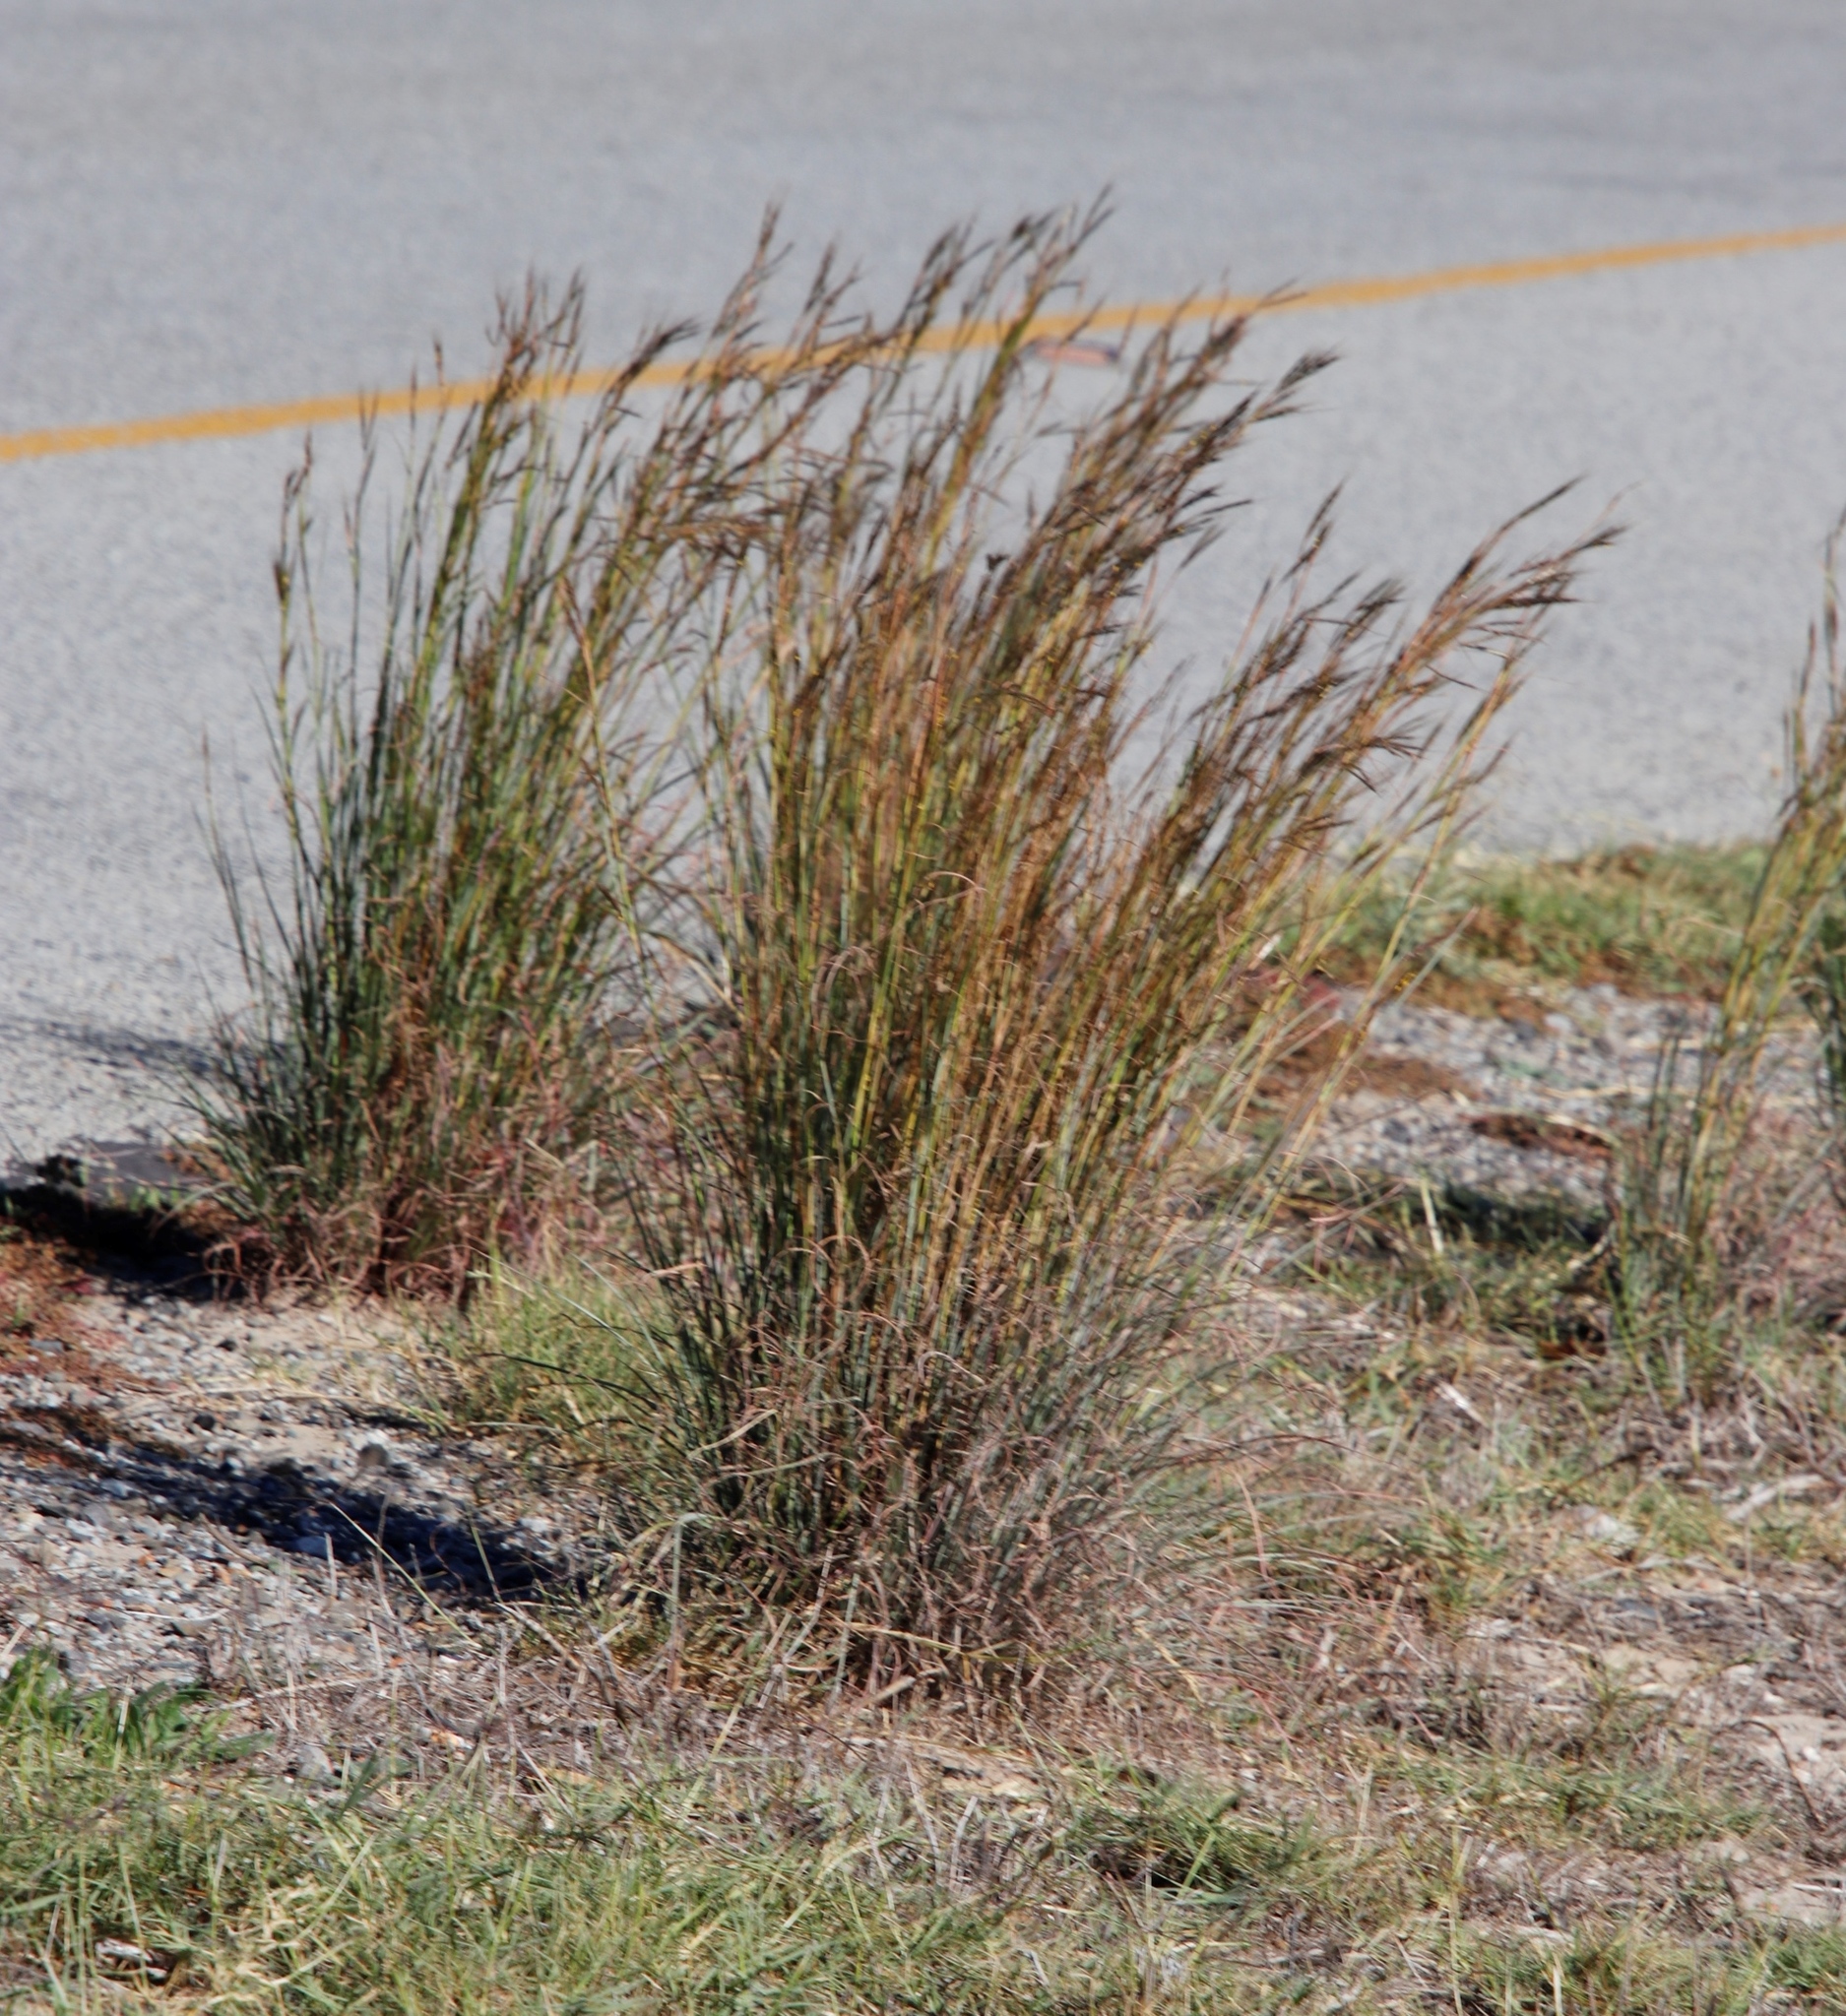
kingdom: Plantae
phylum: Tracheophyta
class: Liliopsida
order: Poales
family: Poaceae
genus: Hyparrhenia
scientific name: Hyparrhenia hirta
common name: Thatching grass
